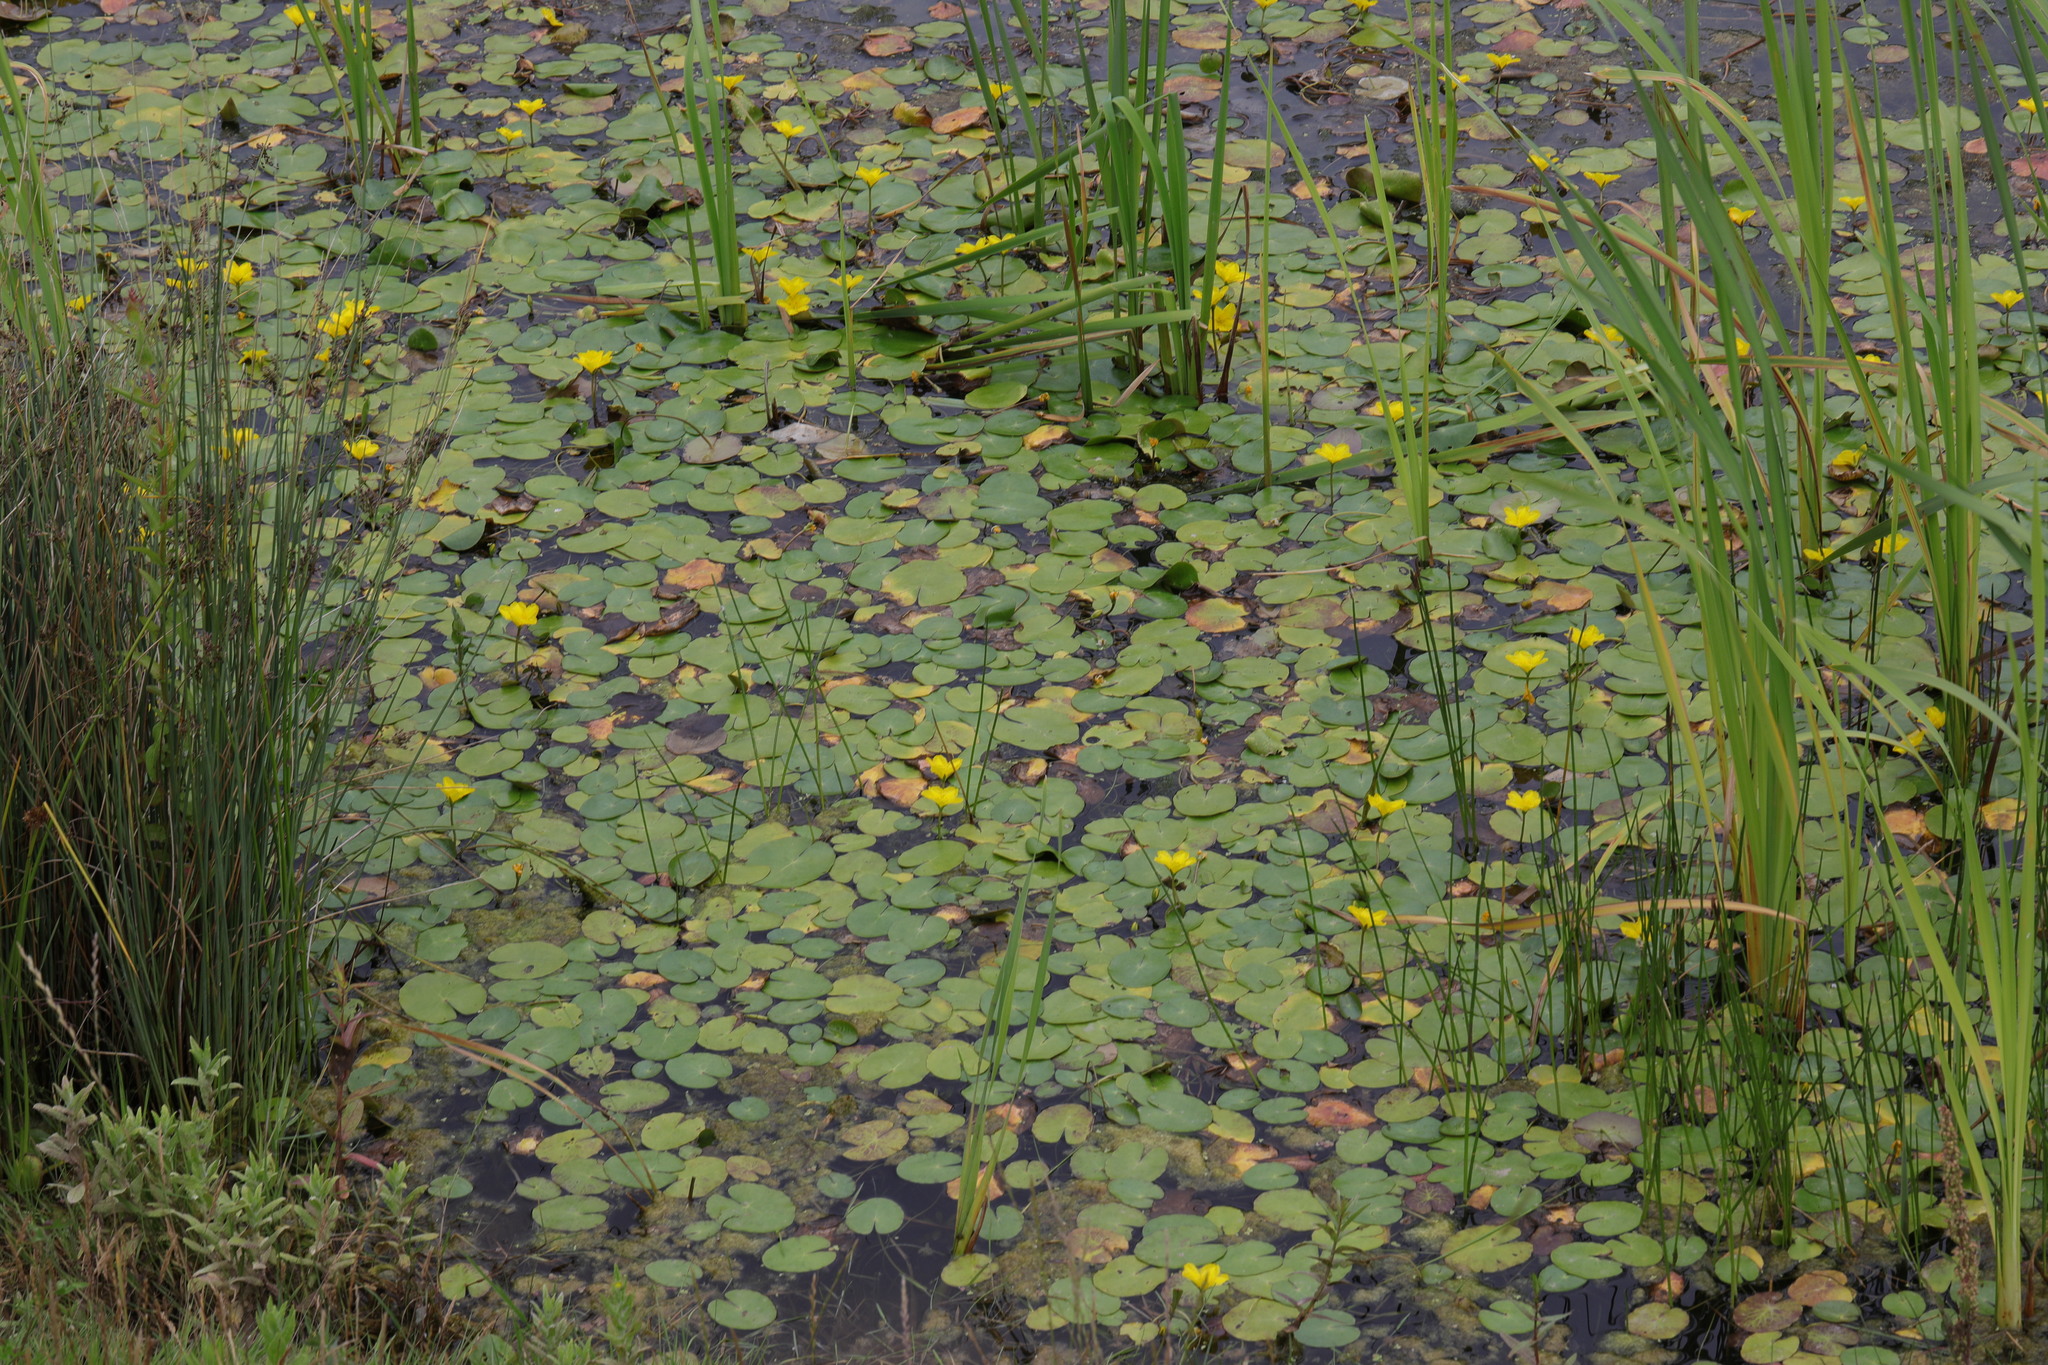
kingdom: Plantae
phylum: Tracheophyta
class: Magnoliopsida
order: Asterales
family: Menyanthaceae
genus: Nymphoides
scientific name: Nymphoides peltata
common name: Fringed water-lily
